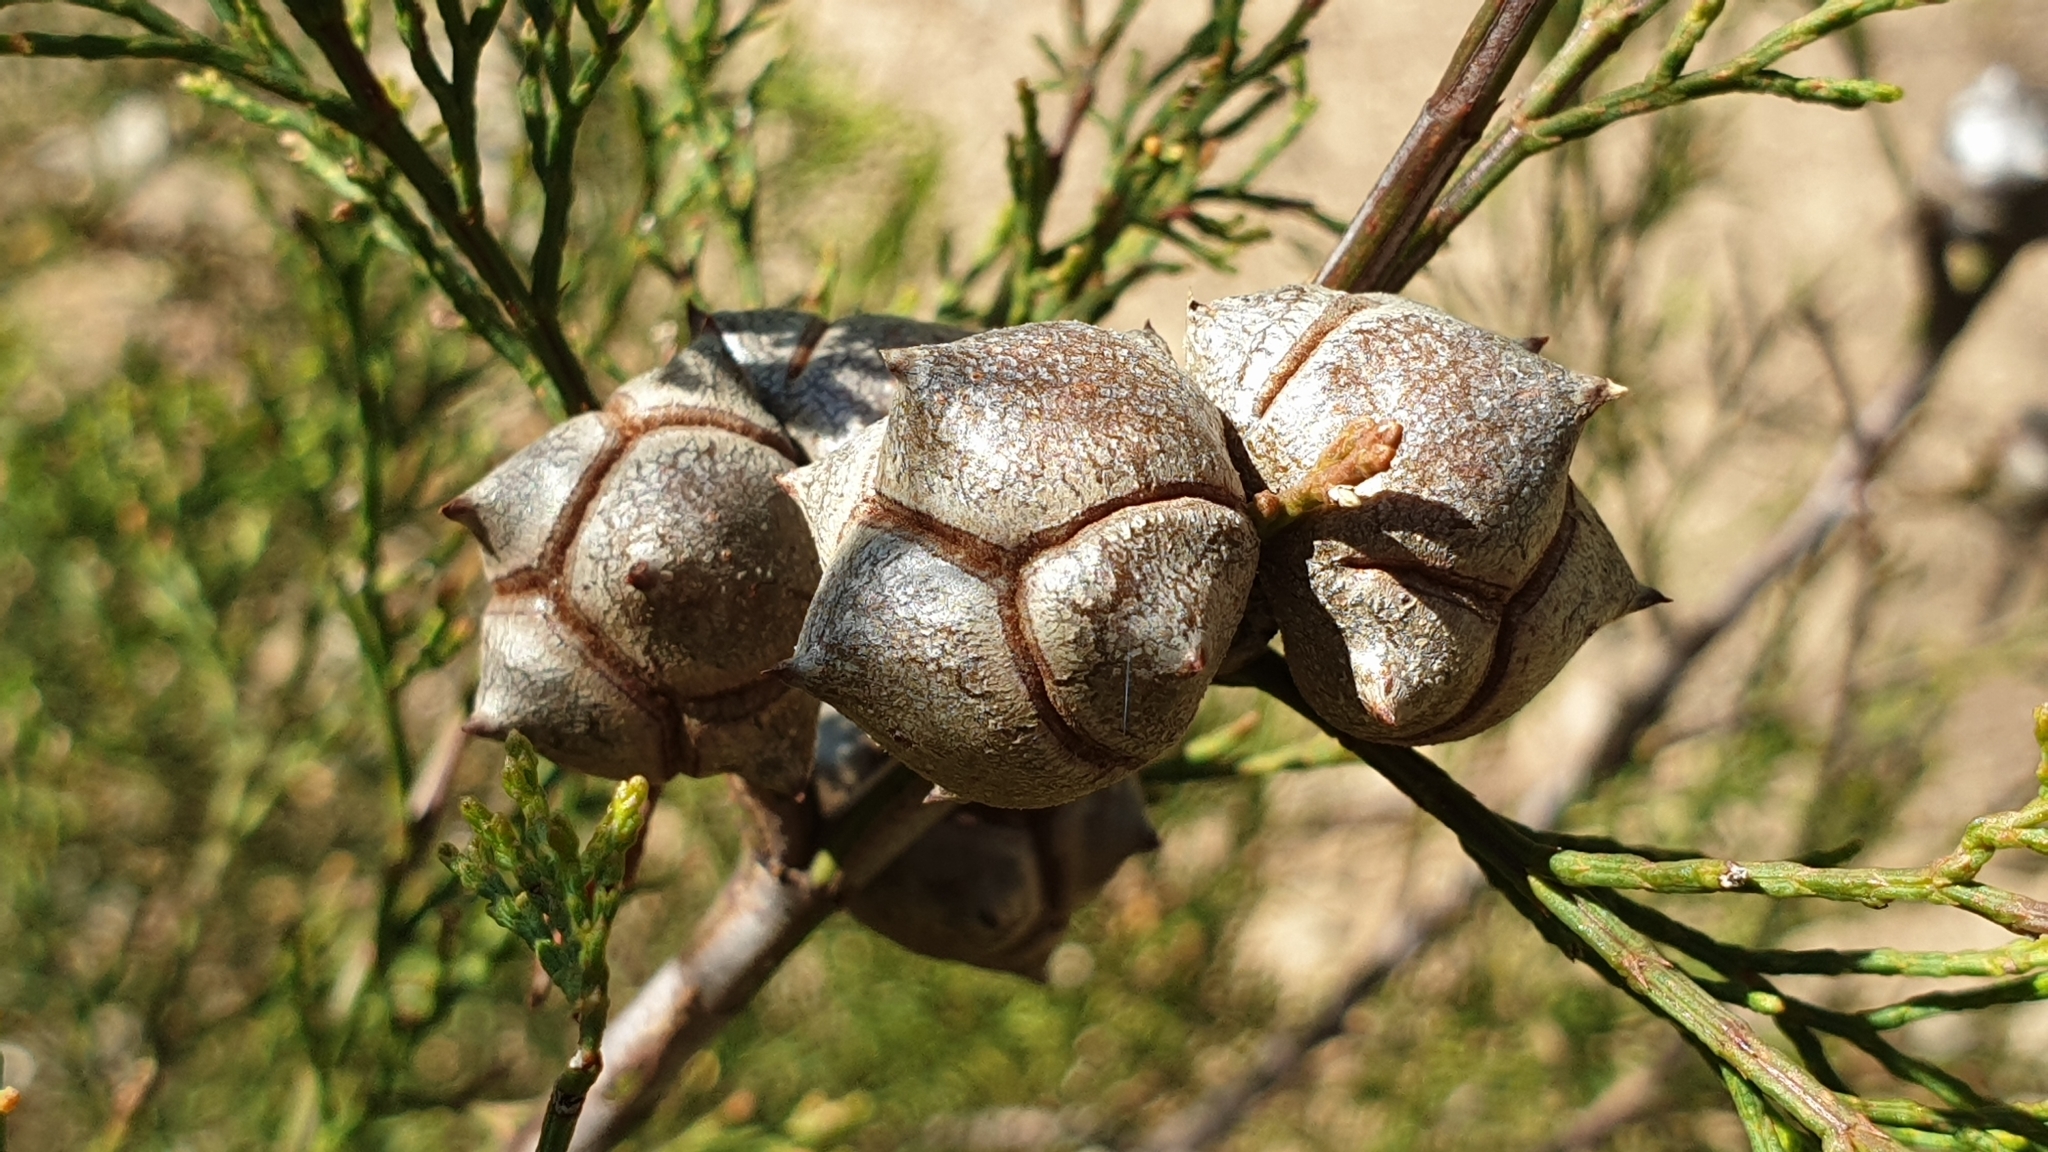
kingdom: Plantae
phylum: Tracheophyta
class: Pinopsida
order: Pinales
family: Cupressaceae
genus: Callitris
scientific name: Callitris rhomboidea
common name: Illawara mountain pine
